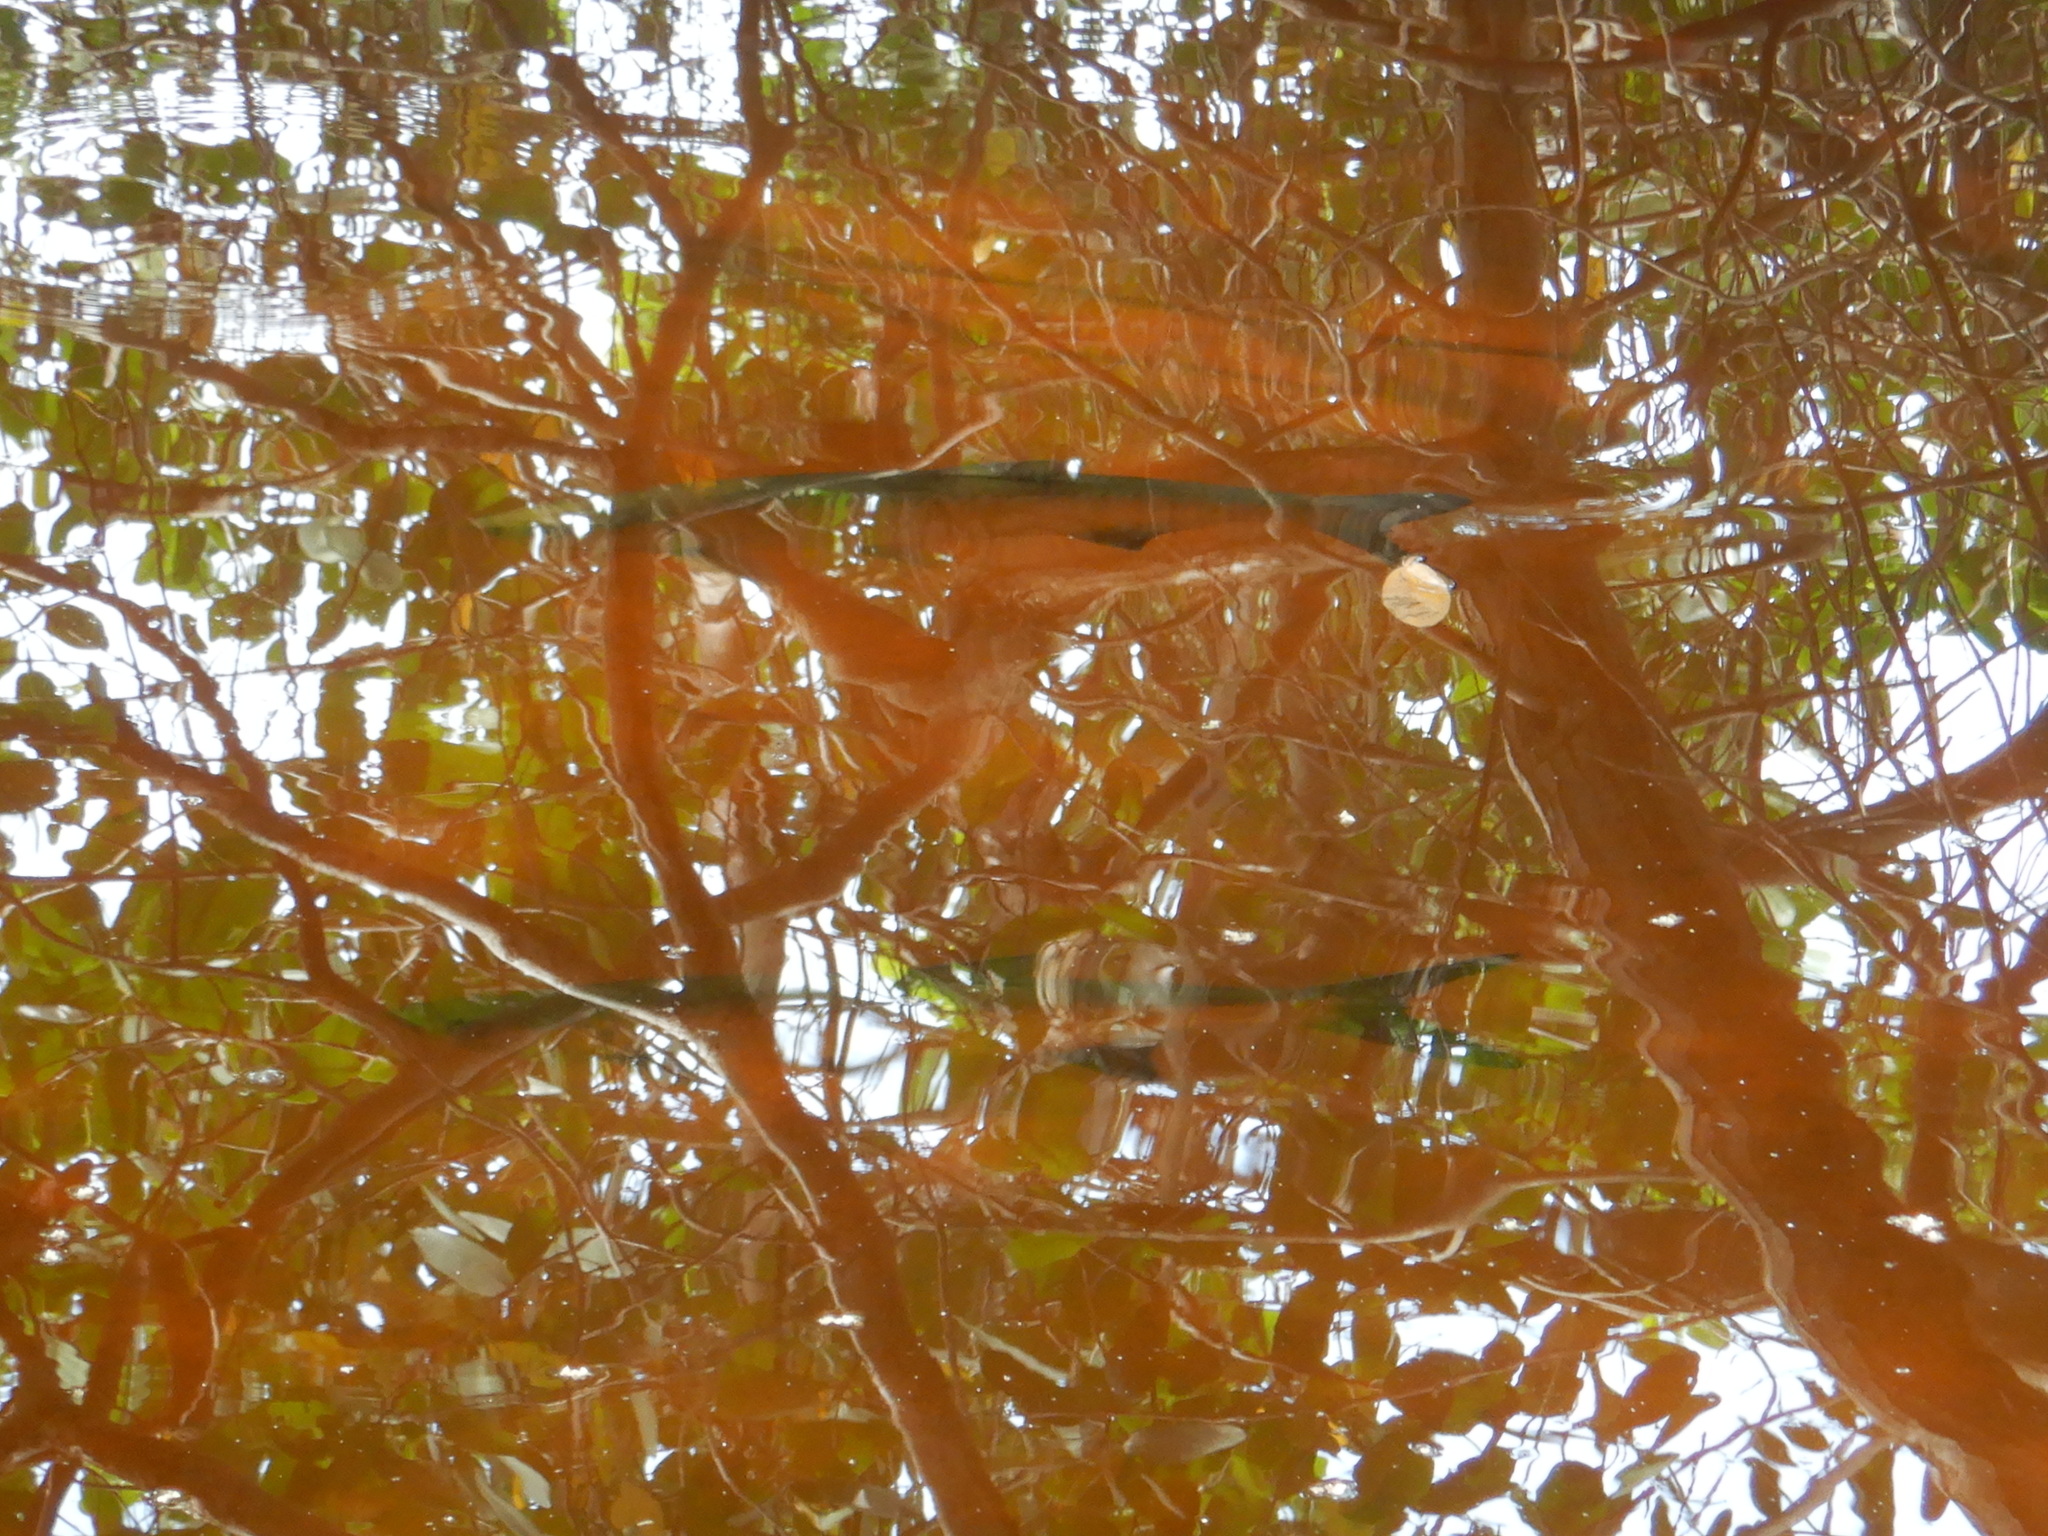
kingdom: Animalia
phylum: Chordata
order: Elopiformes
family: Megalopidae
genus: Megalops
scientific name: Megalops atlanticus
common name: Tarpon
